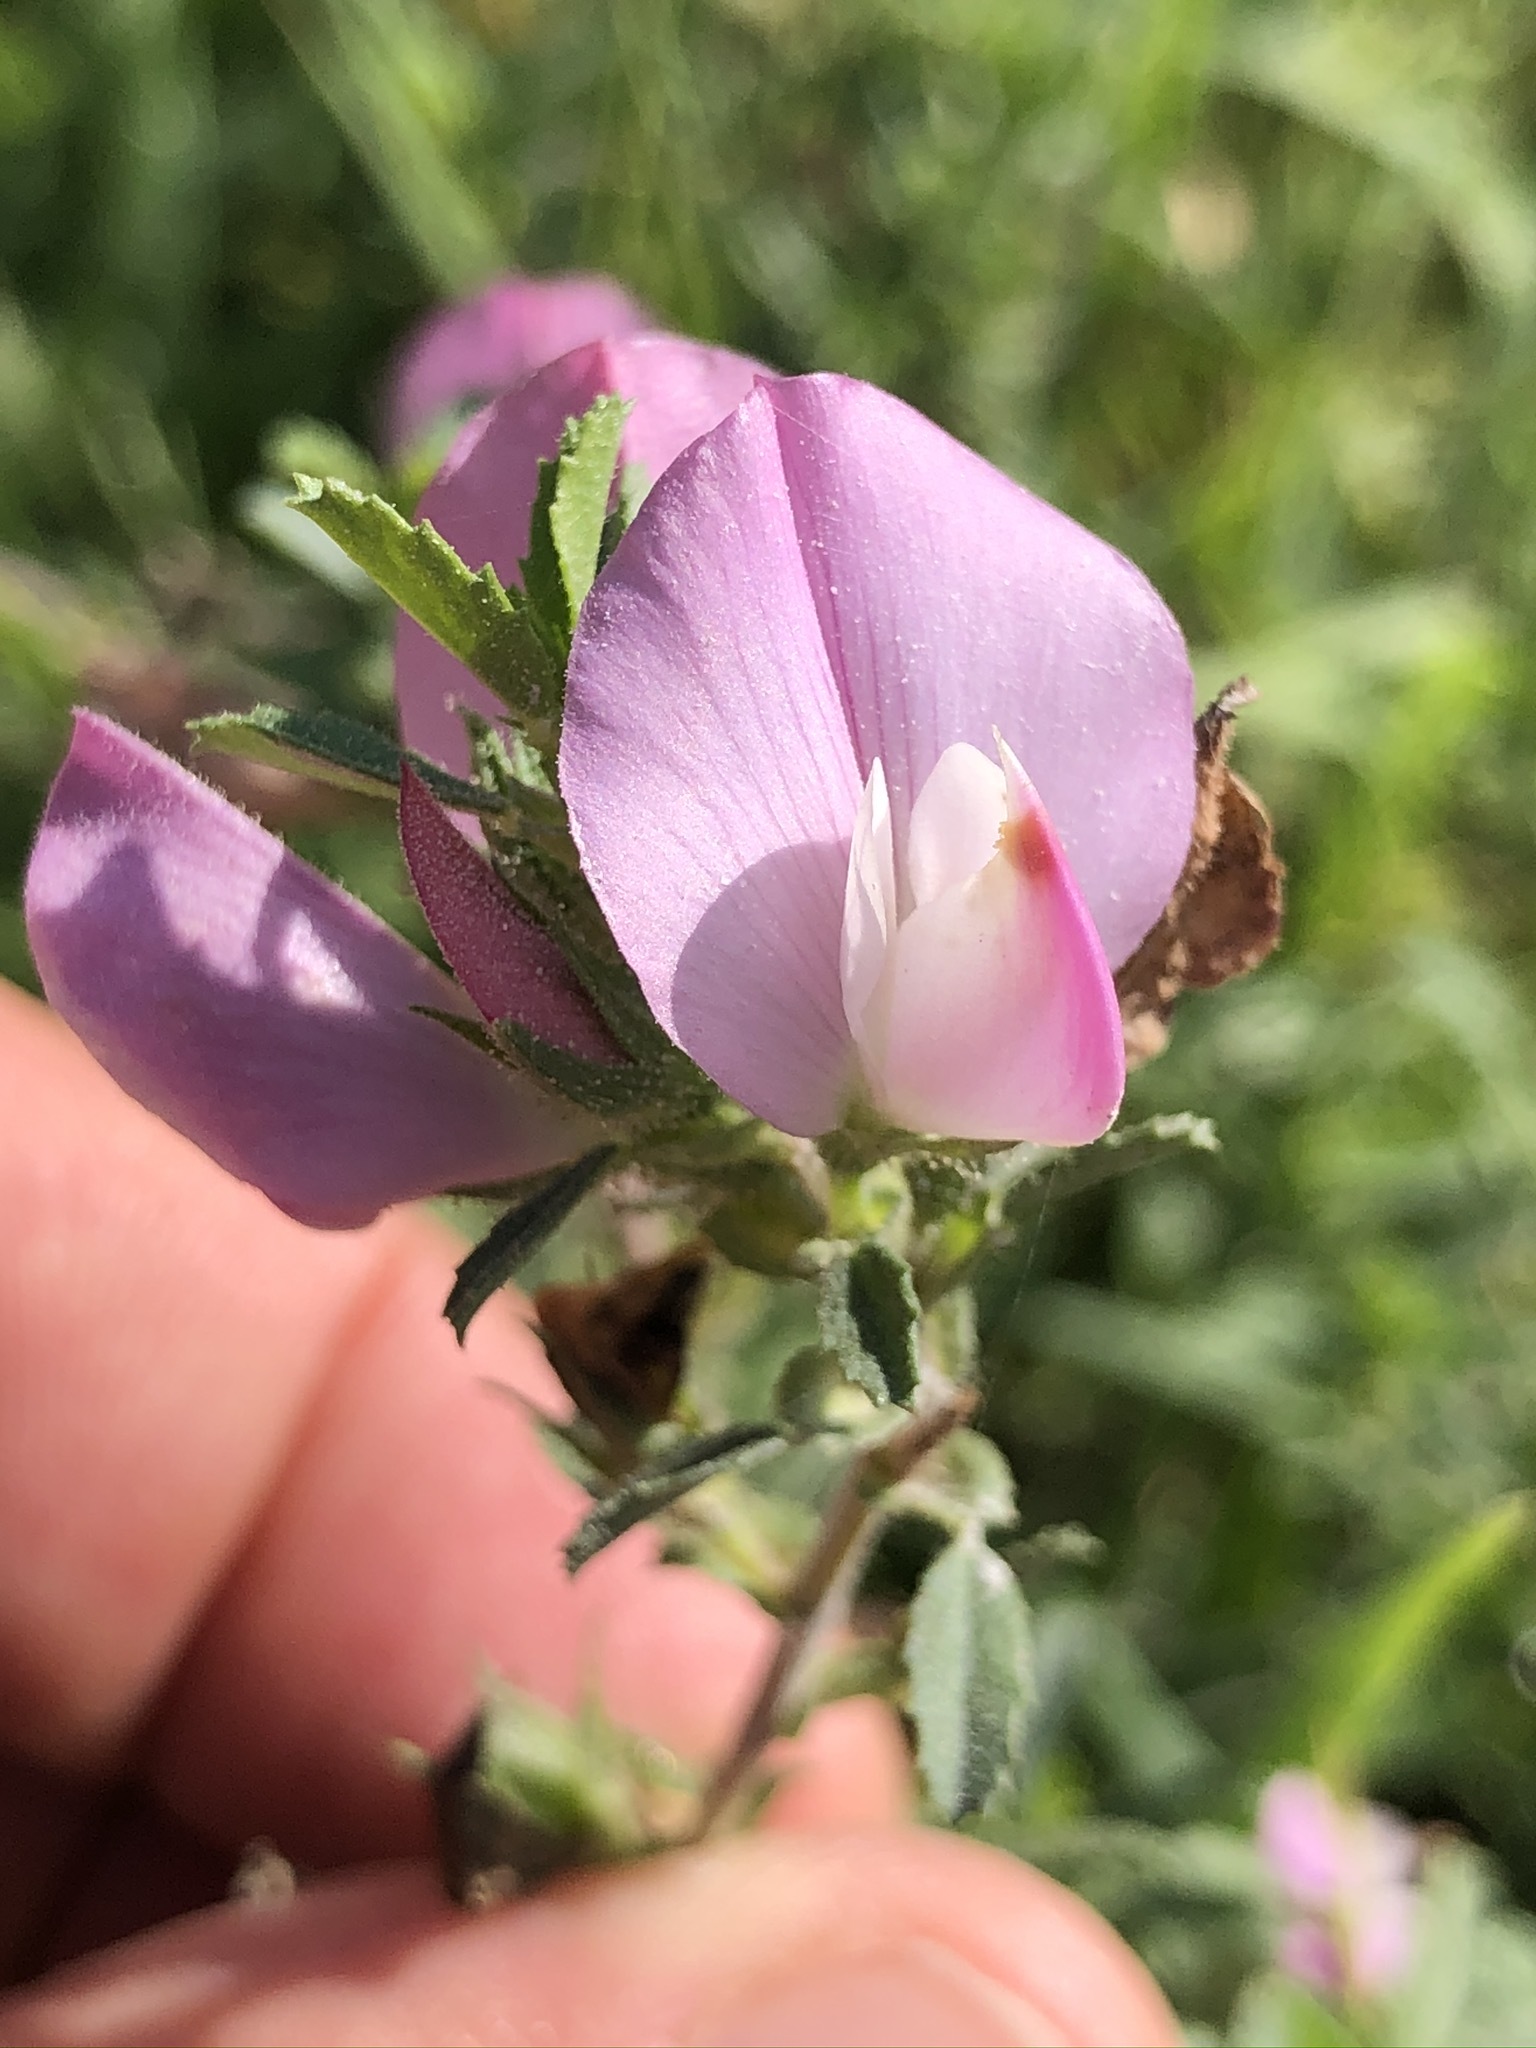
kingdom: Plantae
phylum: Tracheophyta
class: Magnoliopsida
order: Fabales
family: Fabaceae
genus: Ononis
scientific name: Ononis spinosa
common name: Spiny restharrow
